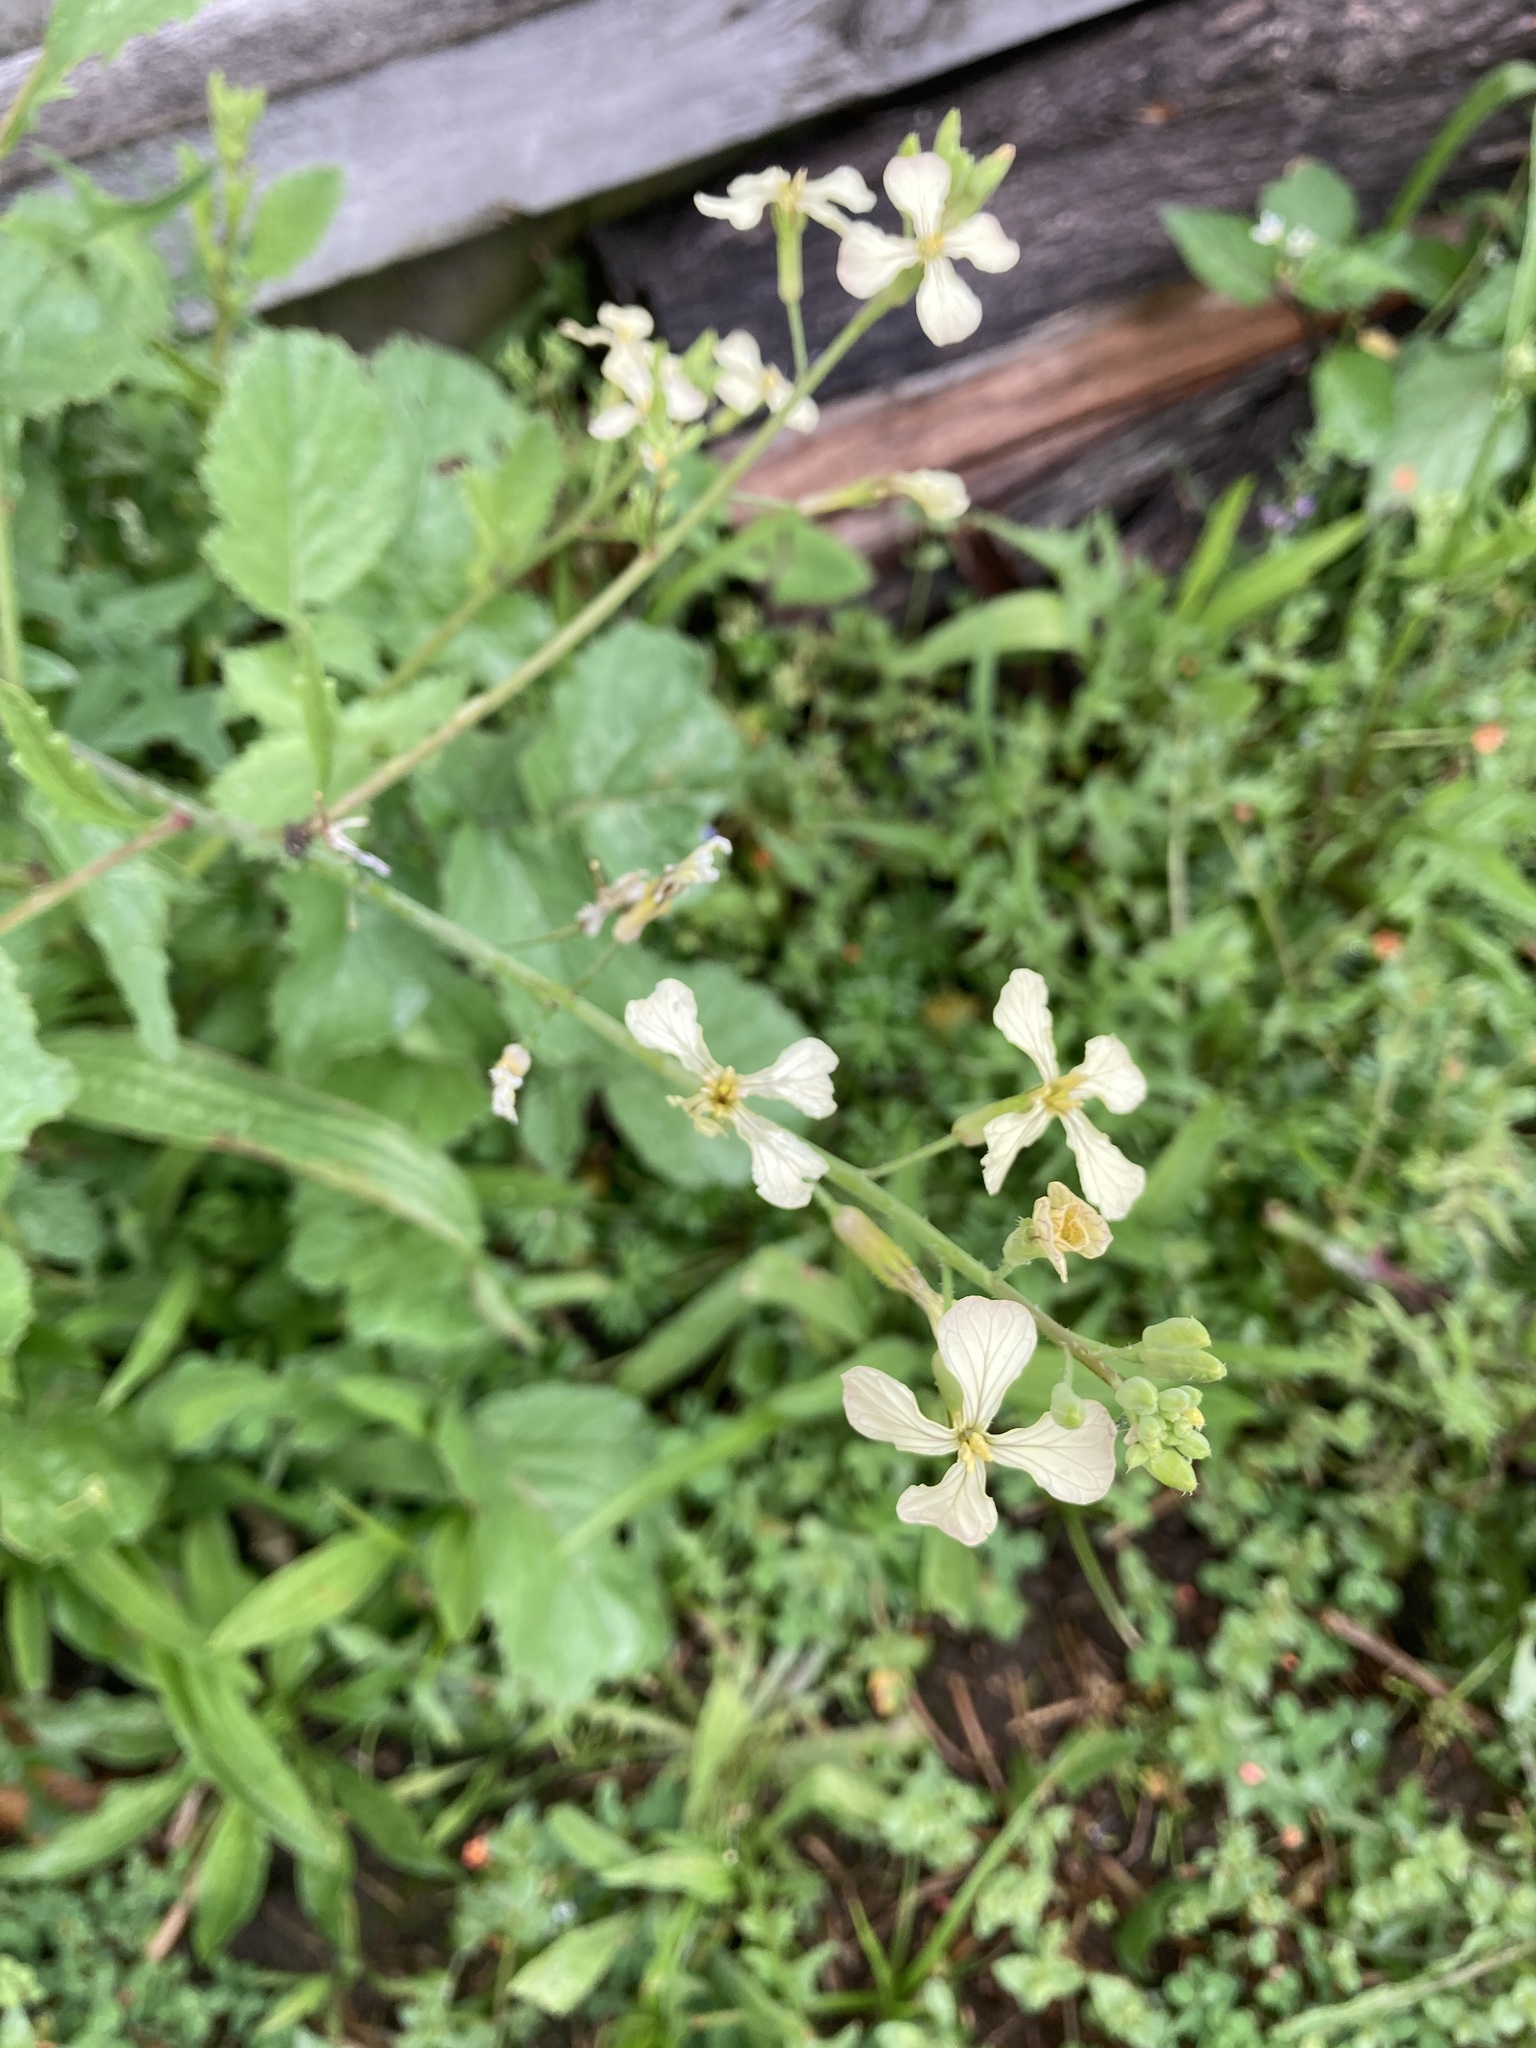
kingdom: Plantae
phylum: Tracheophyta
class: Magnoliopsida
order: Brassicales
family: Brassicaceae
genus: Raphanus
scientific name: Raphanus raphanistrum
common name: Wild radish
